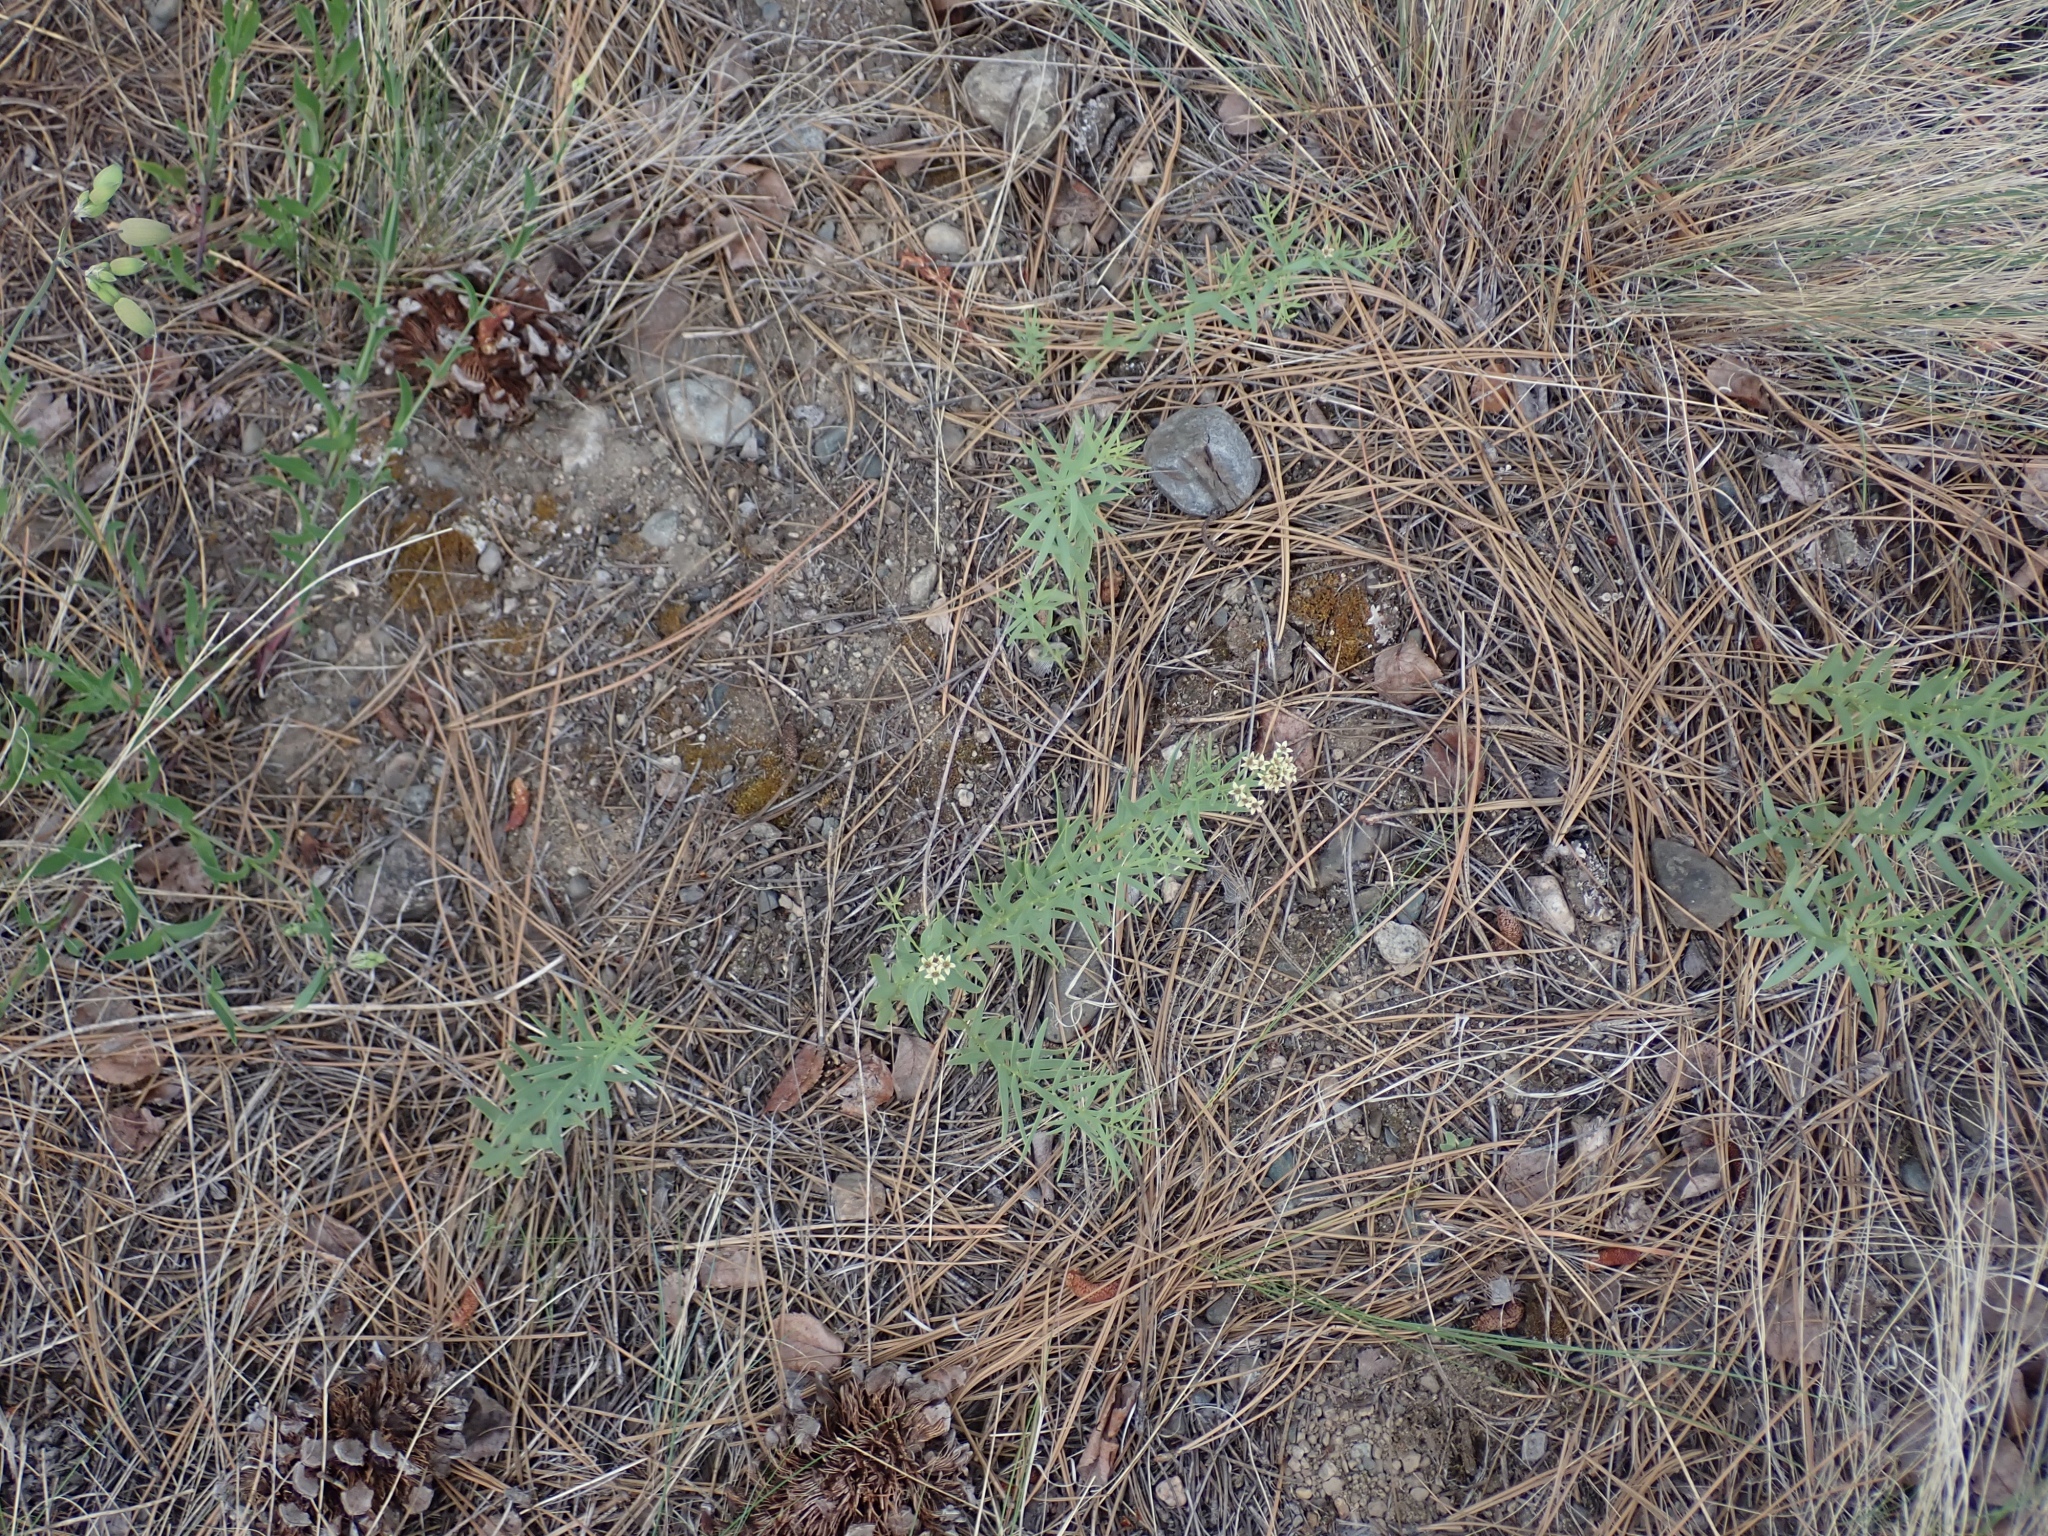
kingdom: Plantae
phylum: Tracheophyta
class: Magnoliopsida
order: Santalales
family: Comandraceae
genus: Comandra
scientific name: Comandra umbellata
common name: Bastard toadflax
